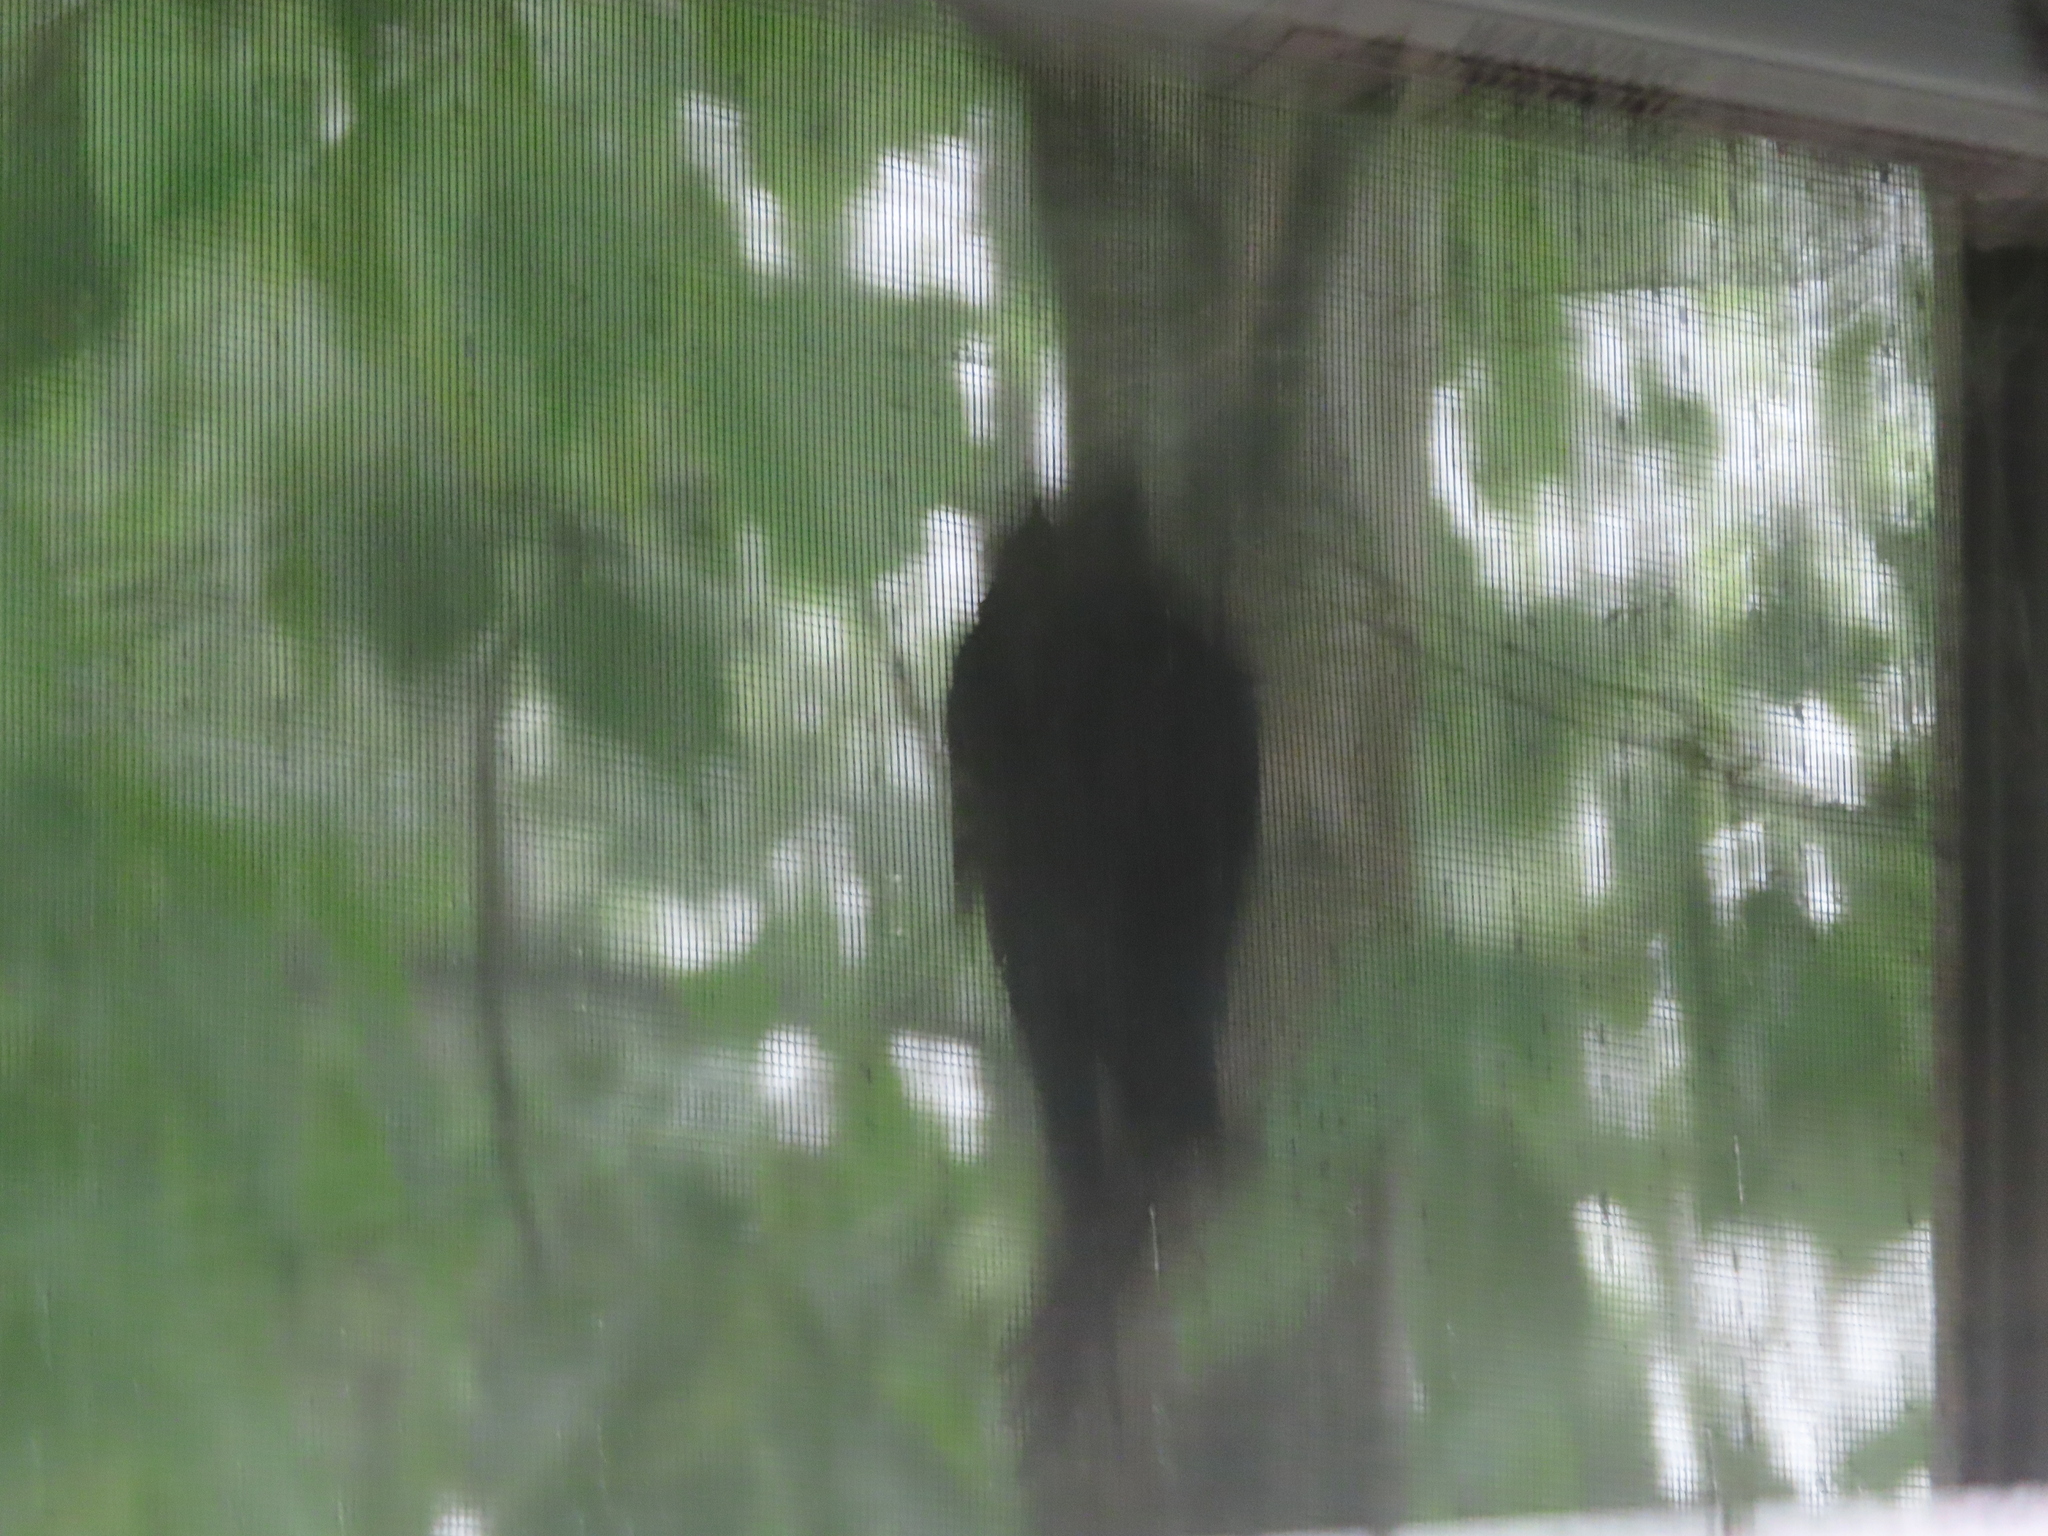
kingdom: Animalia
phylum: Chordata
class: Aves
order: Apodiformes
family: Apodidae
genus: Chaetura
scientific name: Chaetura pelagica
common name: Chimney swift
